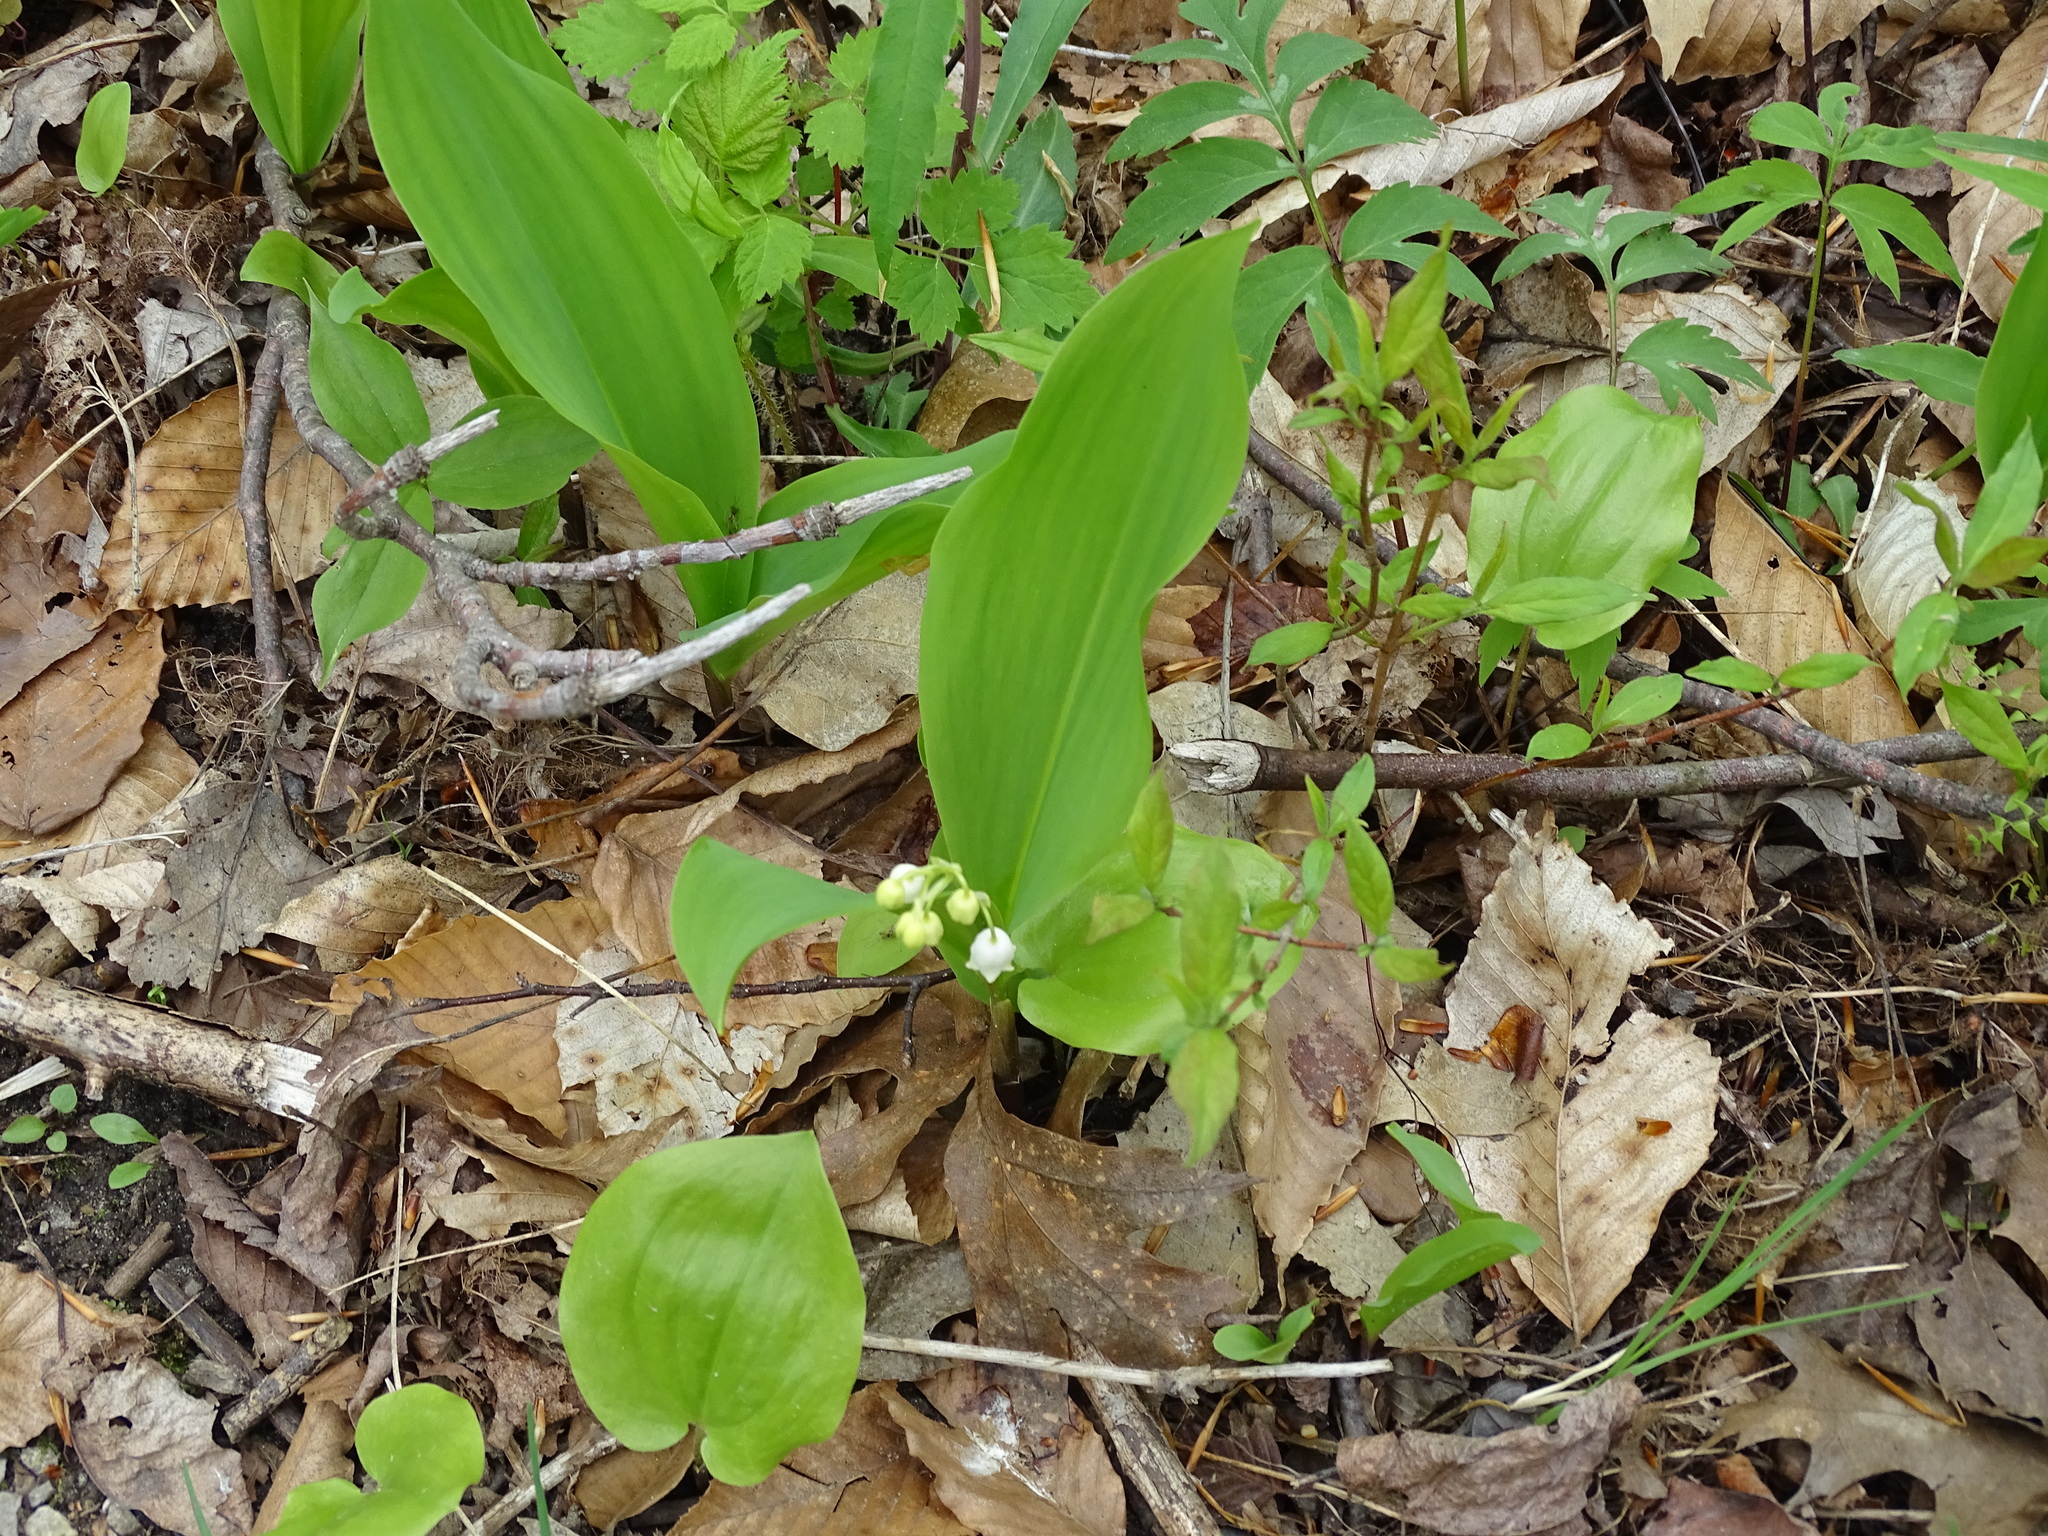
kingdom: Plantae
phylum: Tracheophyta
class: Liliopsida
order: Asparagales
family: Asparagaceae
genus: Convallaria
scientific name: Convallaria majalis
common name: Lily-of-the-valley
